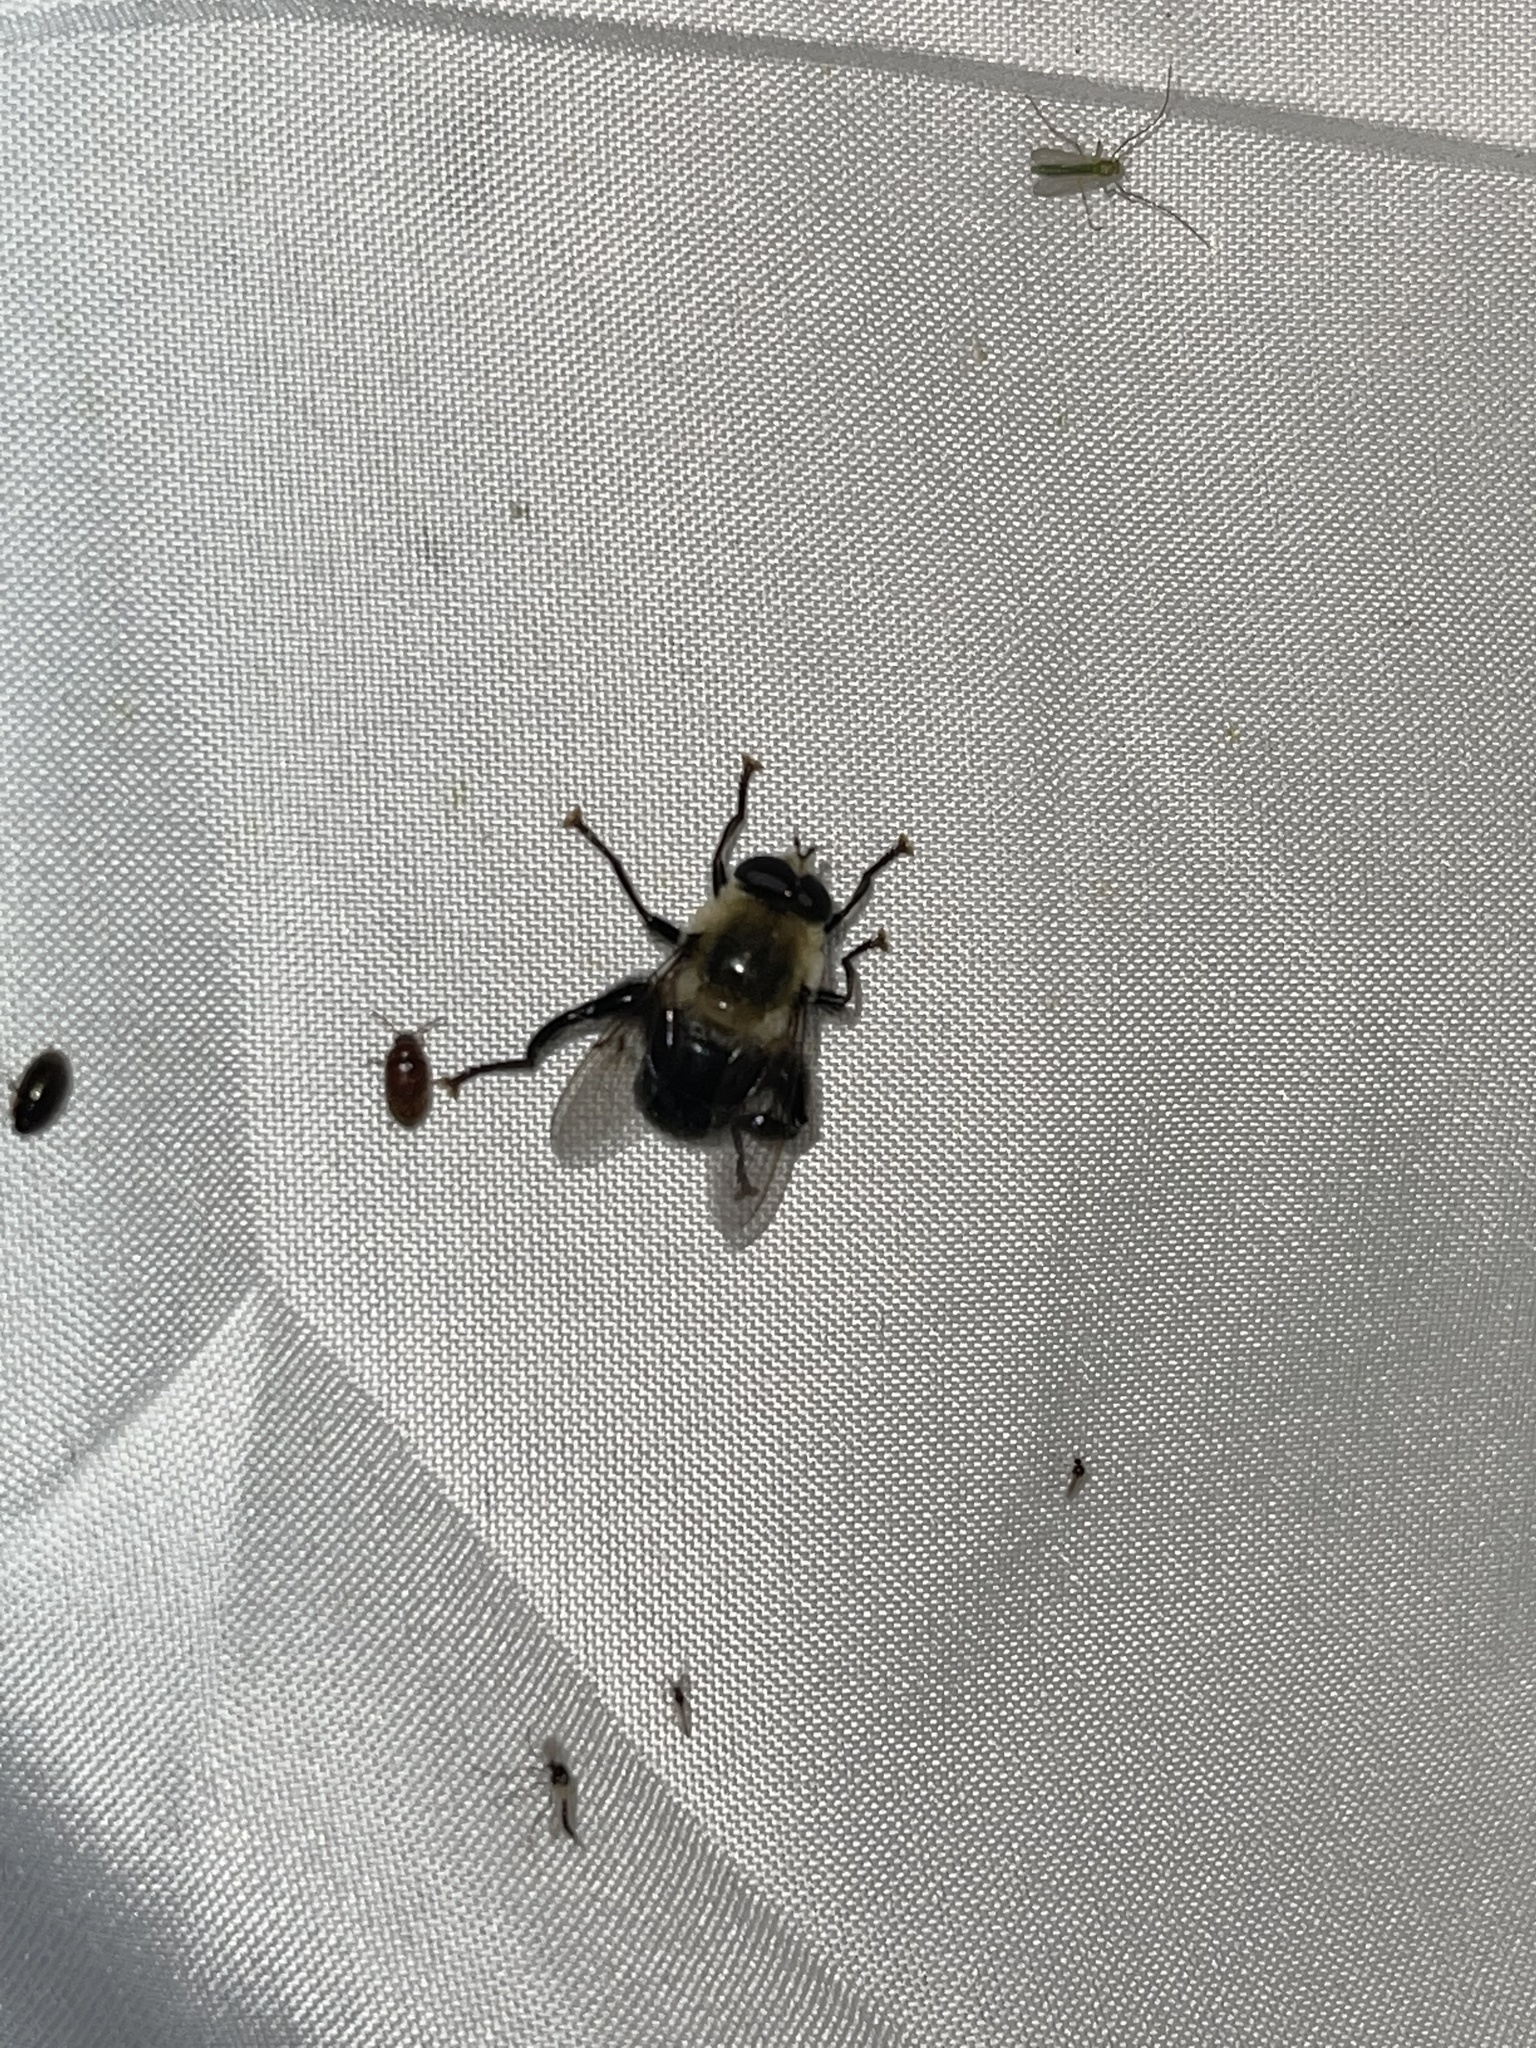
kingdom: Animalia
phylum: Arthropoda
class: Insecta
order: Diptera
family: Syrphidae
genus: Imatisma
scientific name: Imatisma bautias
